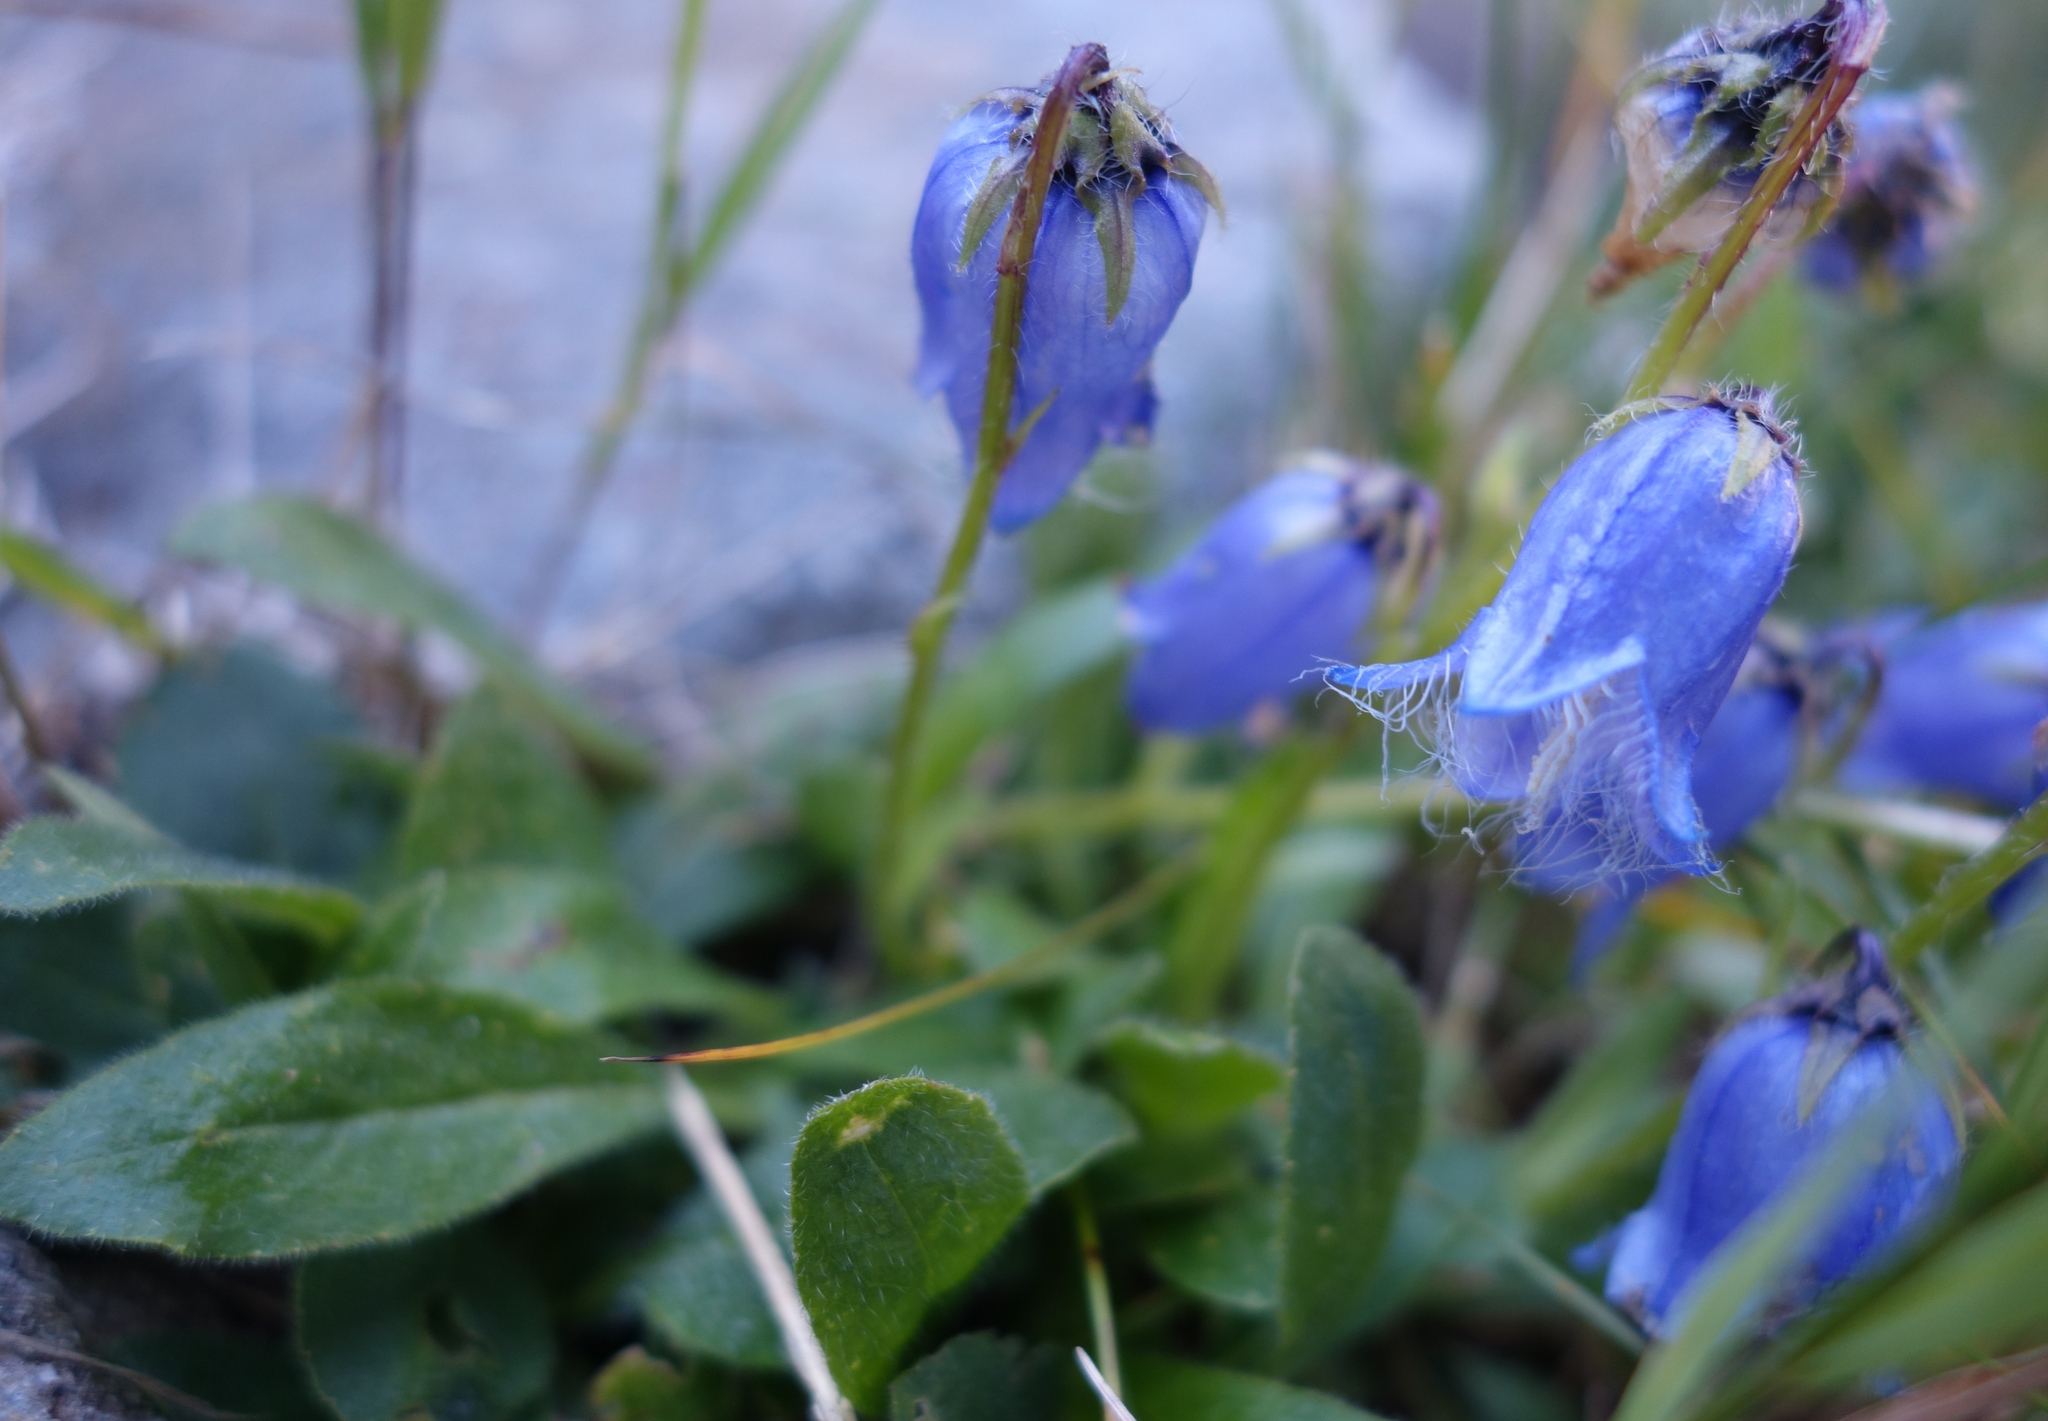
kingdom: Plantae
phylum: Tracheophyta
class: Magnoliopsida
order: Asterales
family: Campanulaceae
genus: Campanula
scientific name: Campanula barbata
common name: Bearded bellflower
